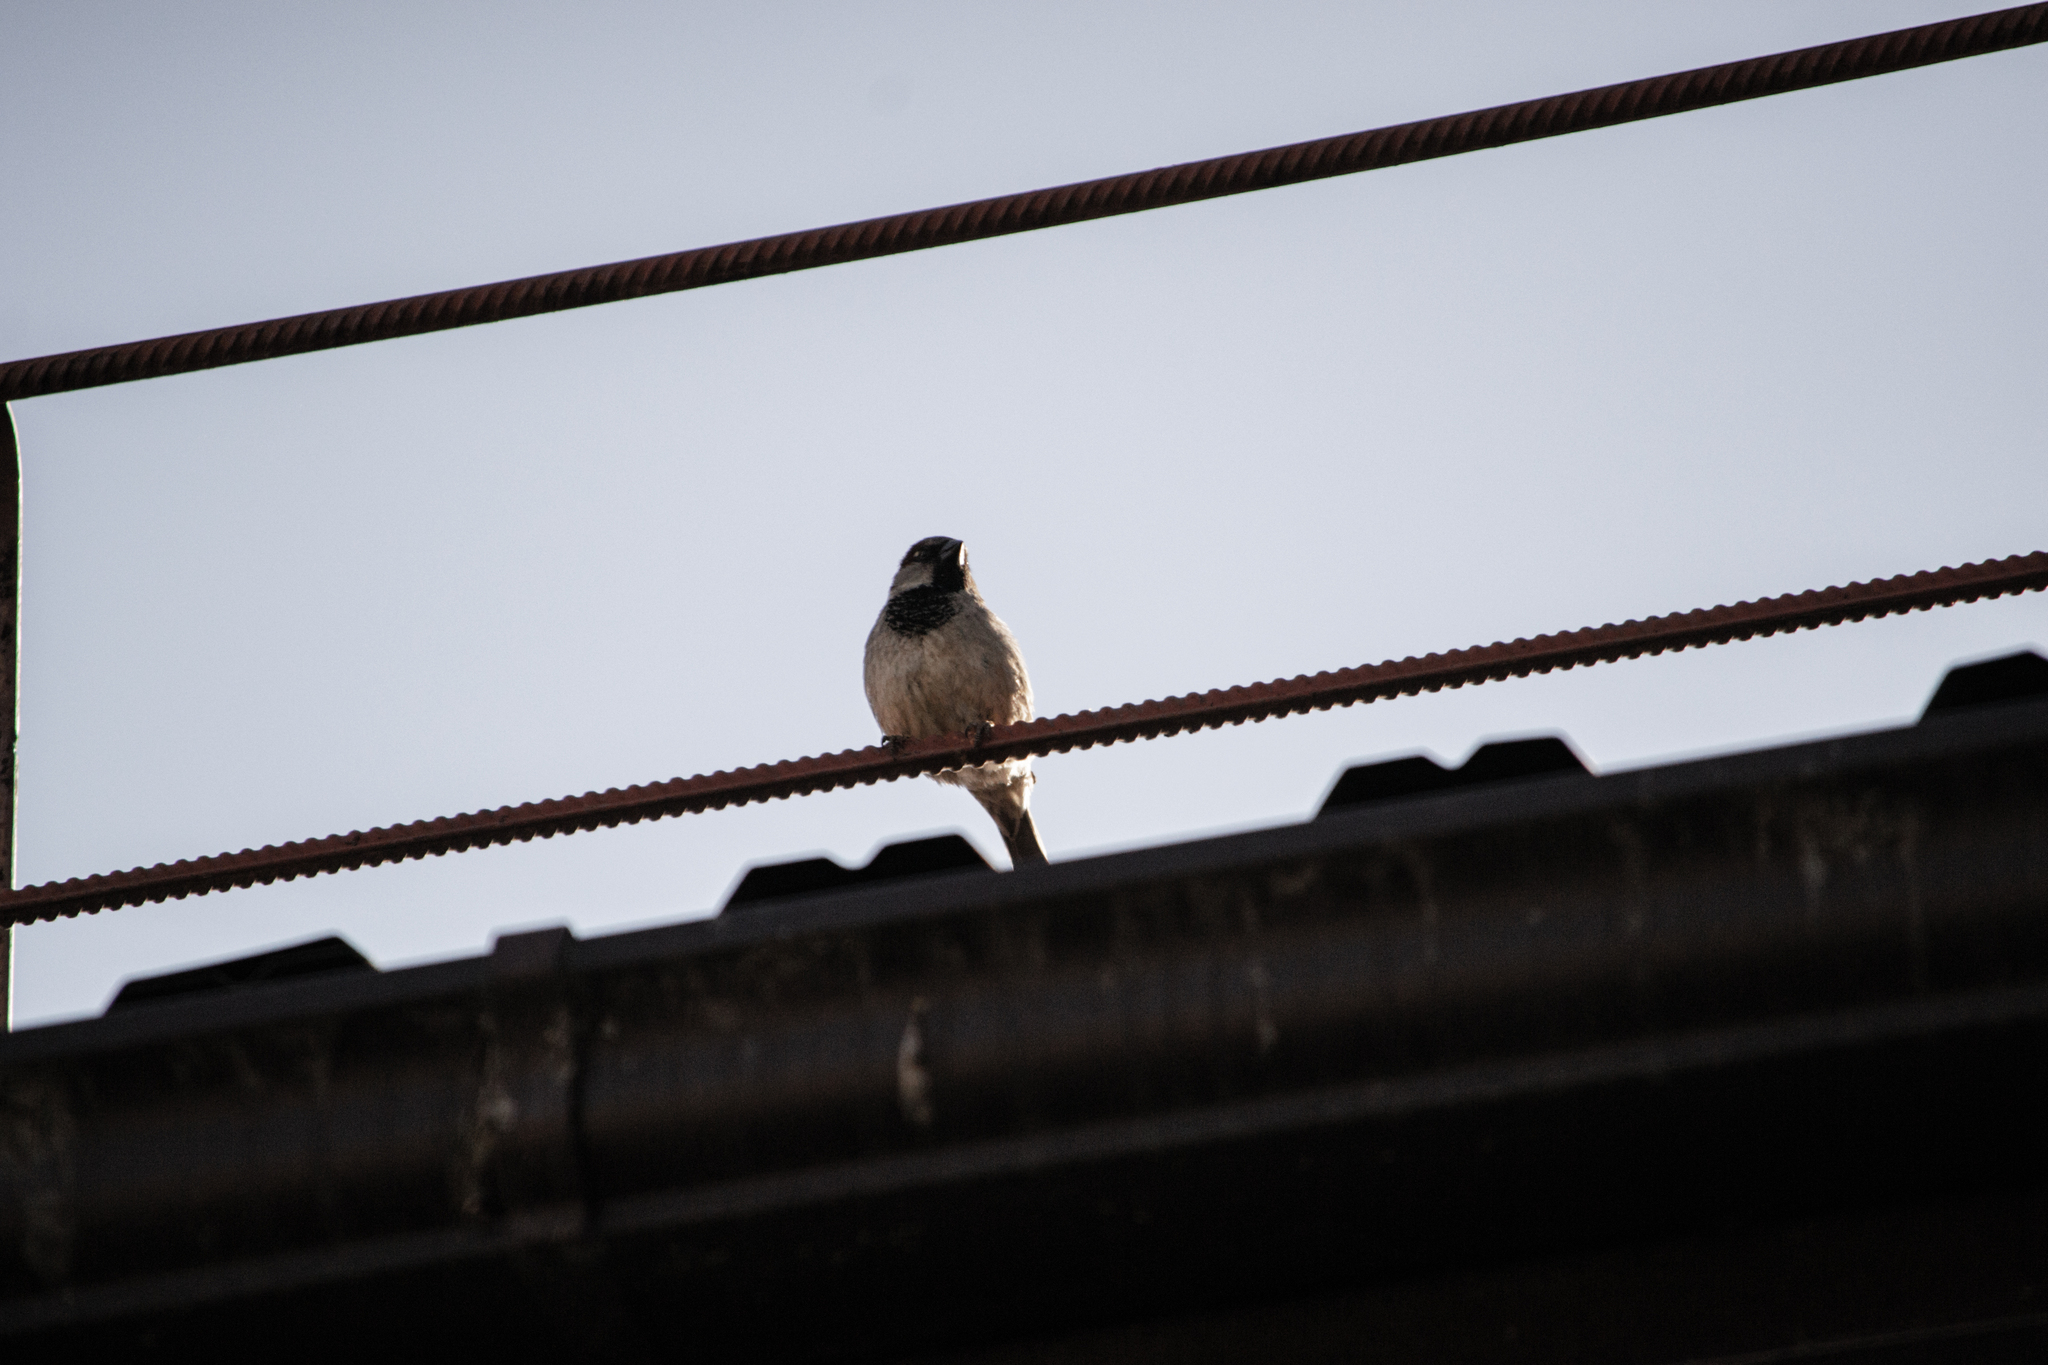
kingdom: Animalia
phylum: Chordata
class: Aves
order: Passeriformes
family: Passeridae
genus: Passer
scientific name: Passer domesticus
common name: House sparrow
